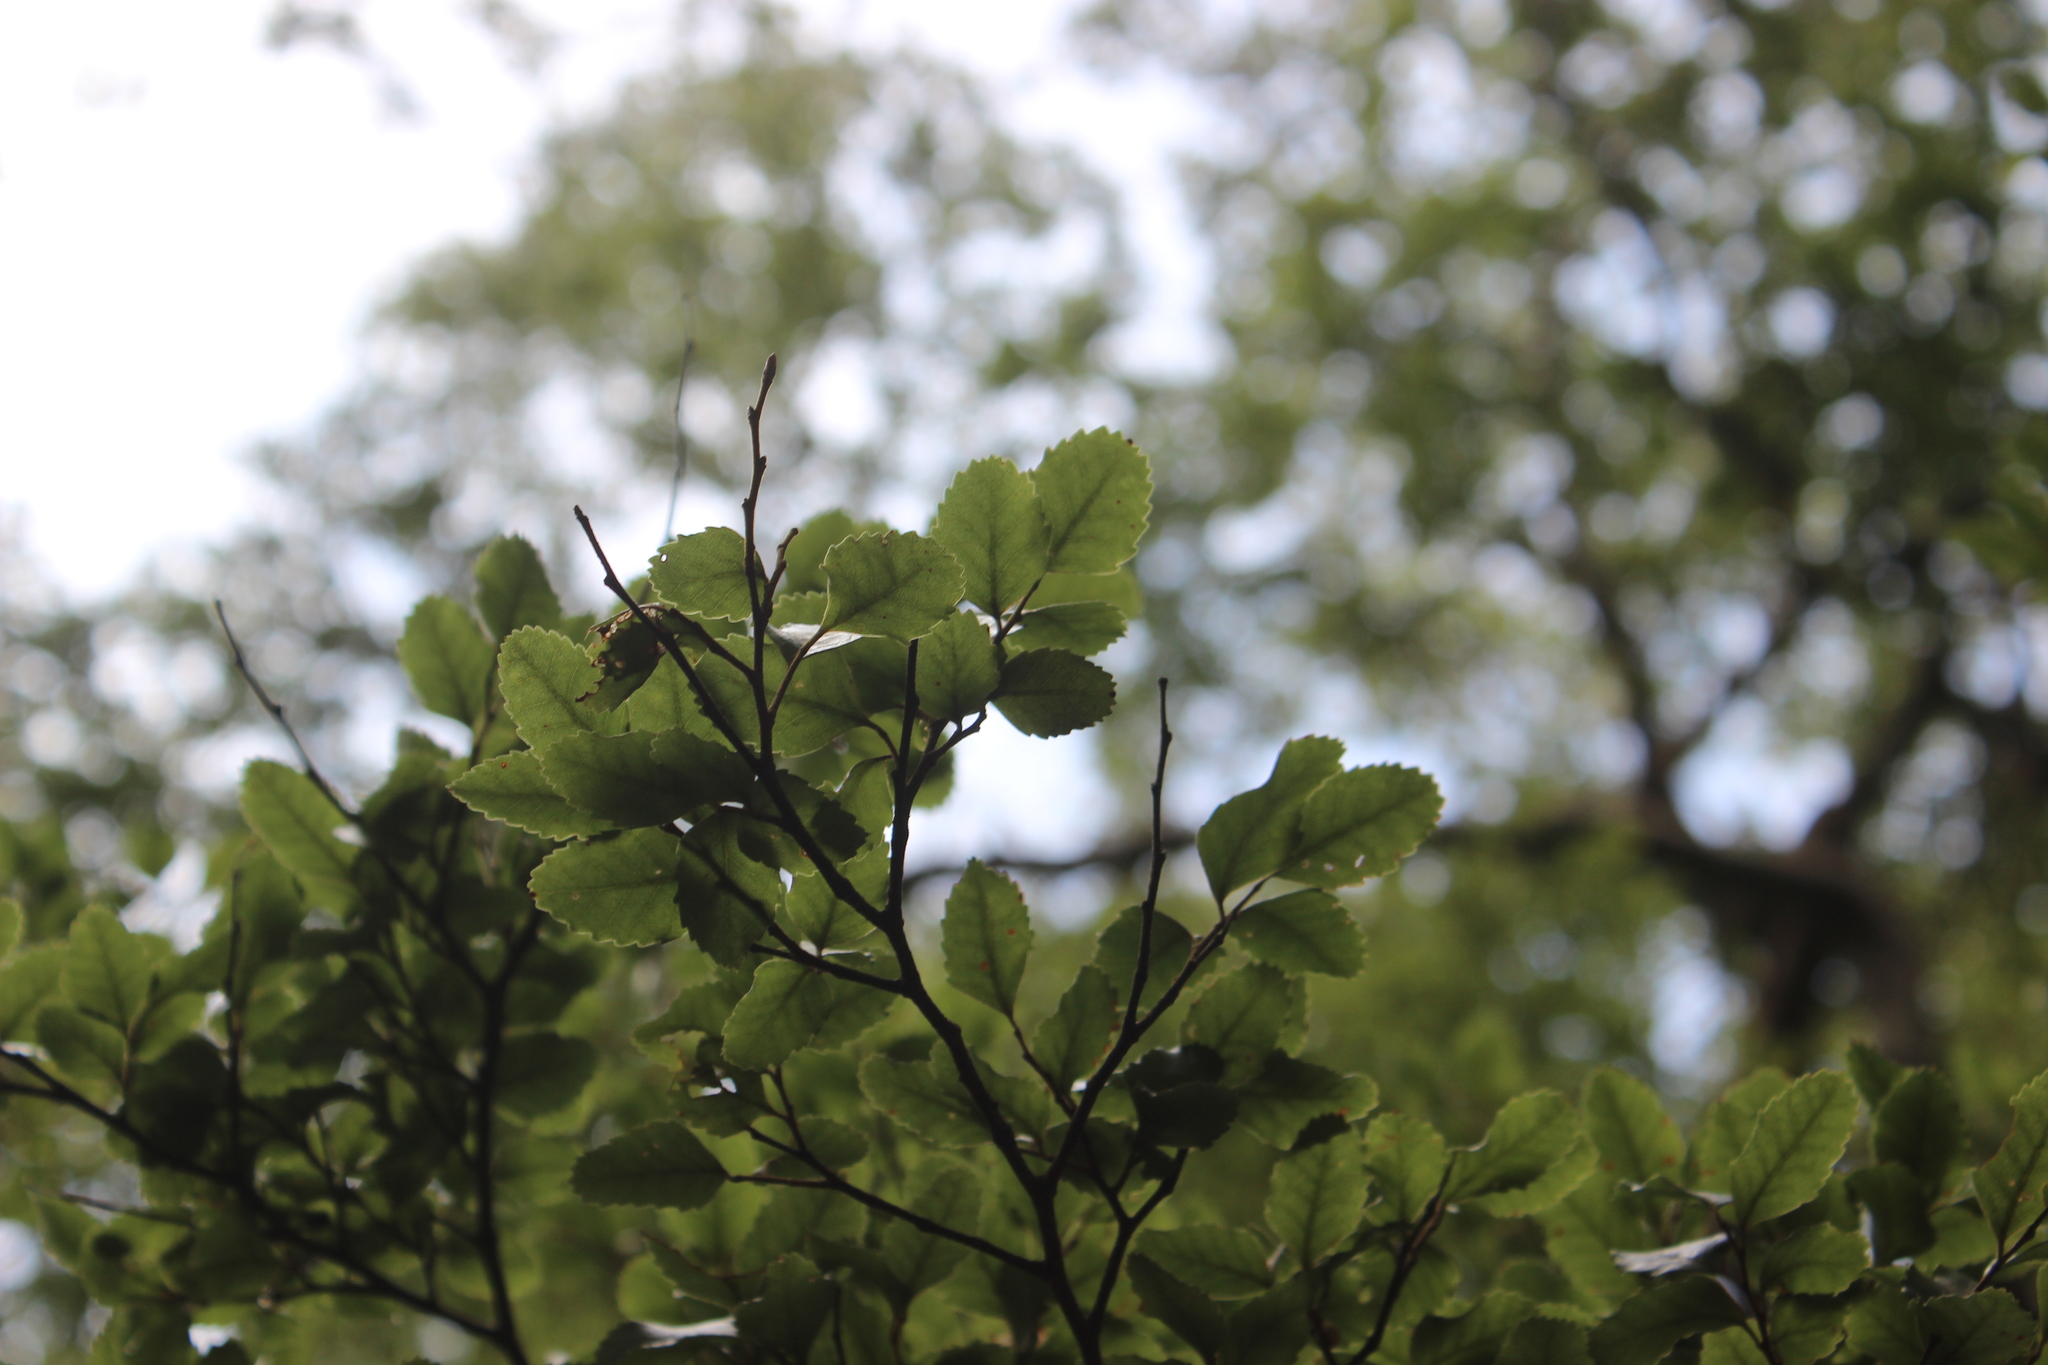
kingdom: Plantae
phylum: Tracheophyta
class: Magnoliopsida
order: Fagales
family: Nothofagaceae
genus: Nothofagus
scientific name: Nothofagus truncata
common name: Hard beech
